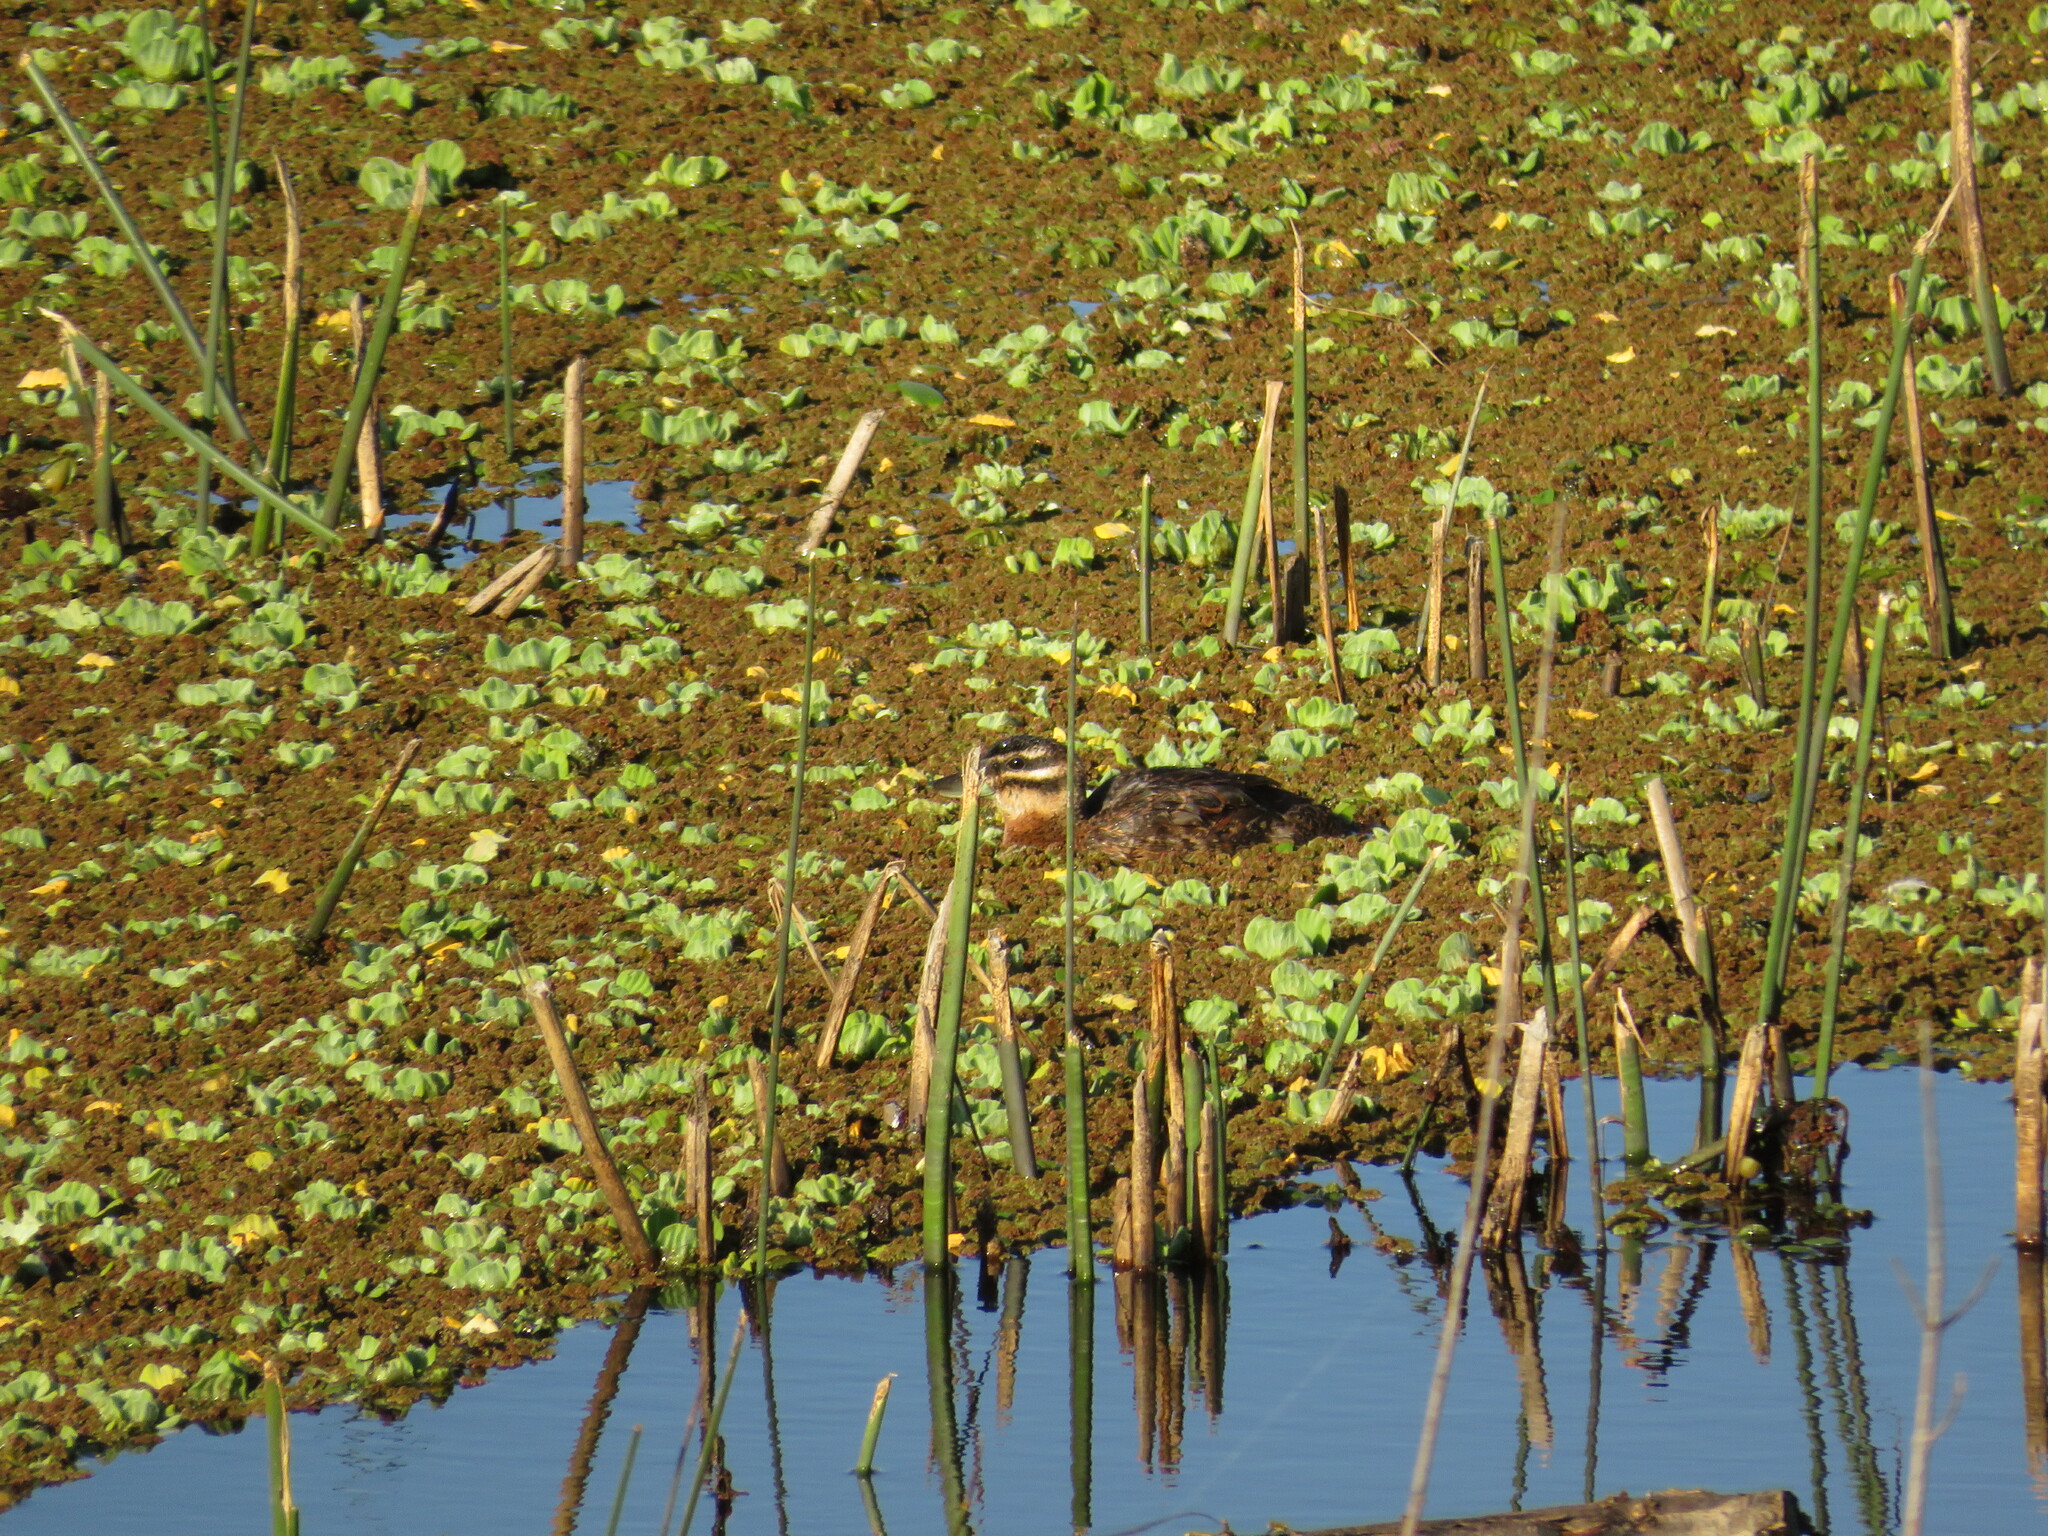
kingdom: Animalia
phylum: Chordata
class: Aves
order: Anseriformes
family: Anatidae
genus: Nomonyx
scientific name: Nomonyx dominicus
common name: Masked duck
